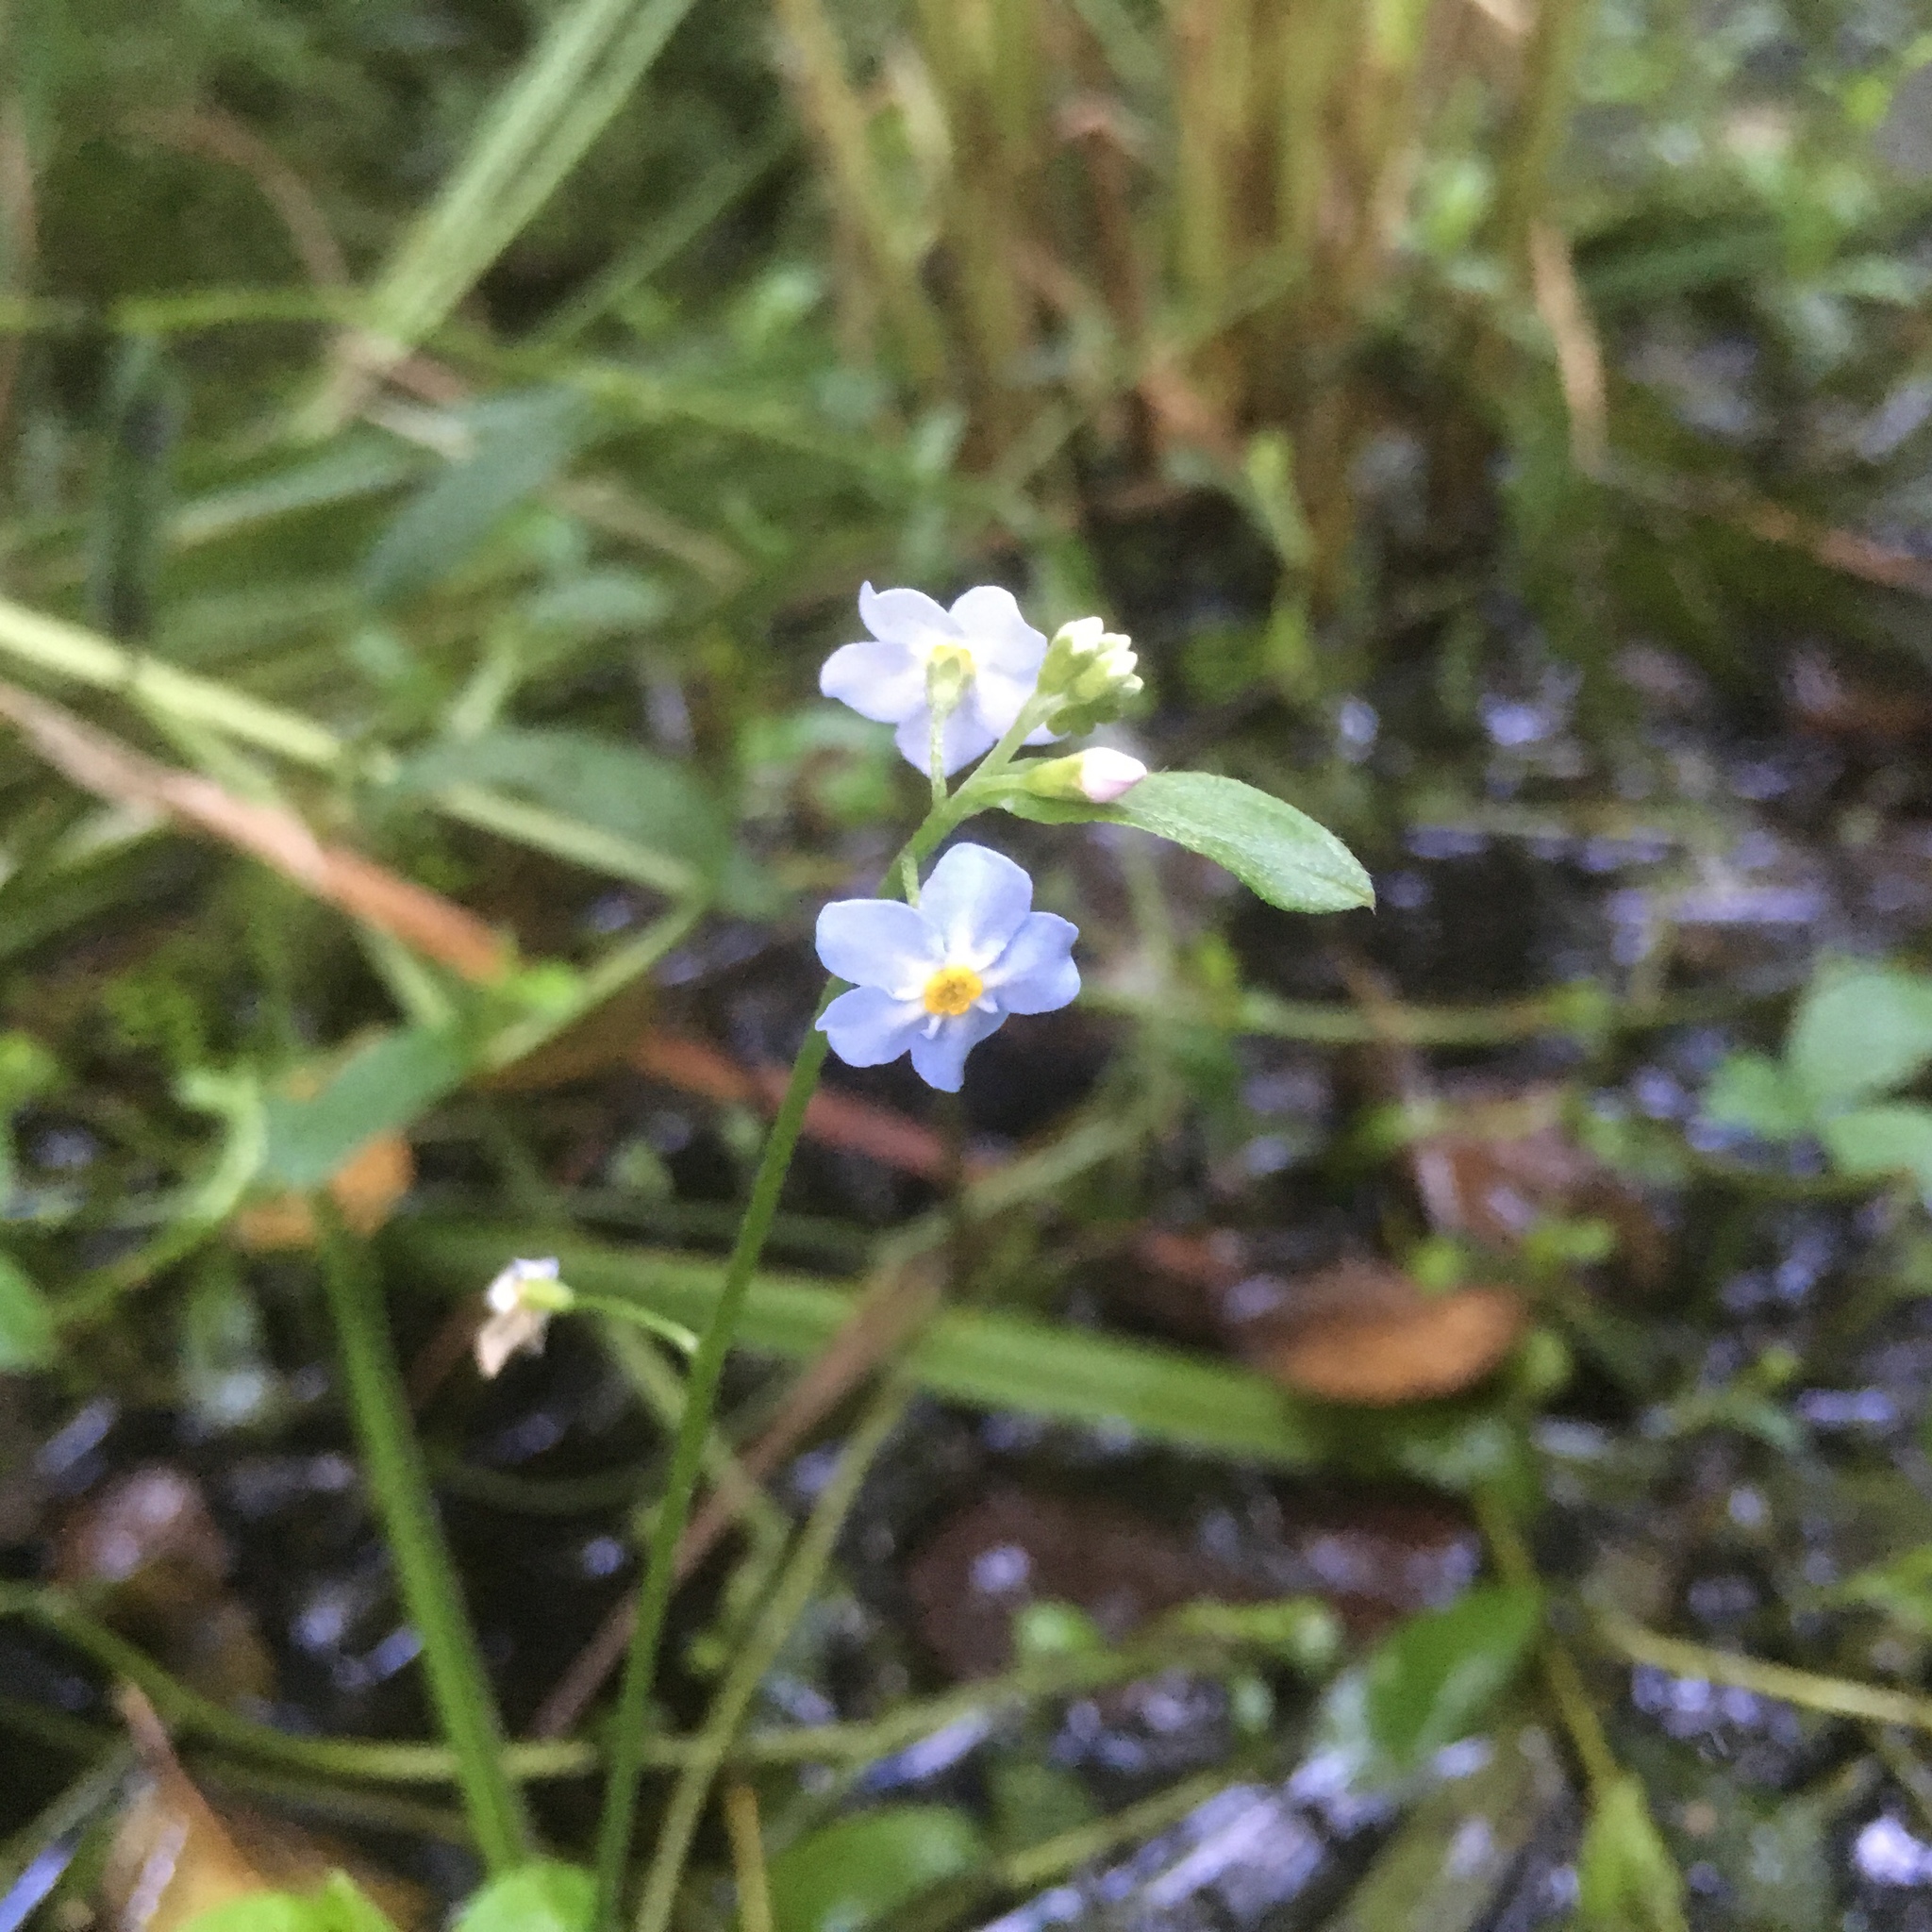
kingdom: Plantae
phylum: Tracheophyta
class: Magnoliopsida
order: Boraginales
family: Boraginaceae
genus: Myosotis
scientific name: Myosotis scorpioides
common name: Water forget-me-not
